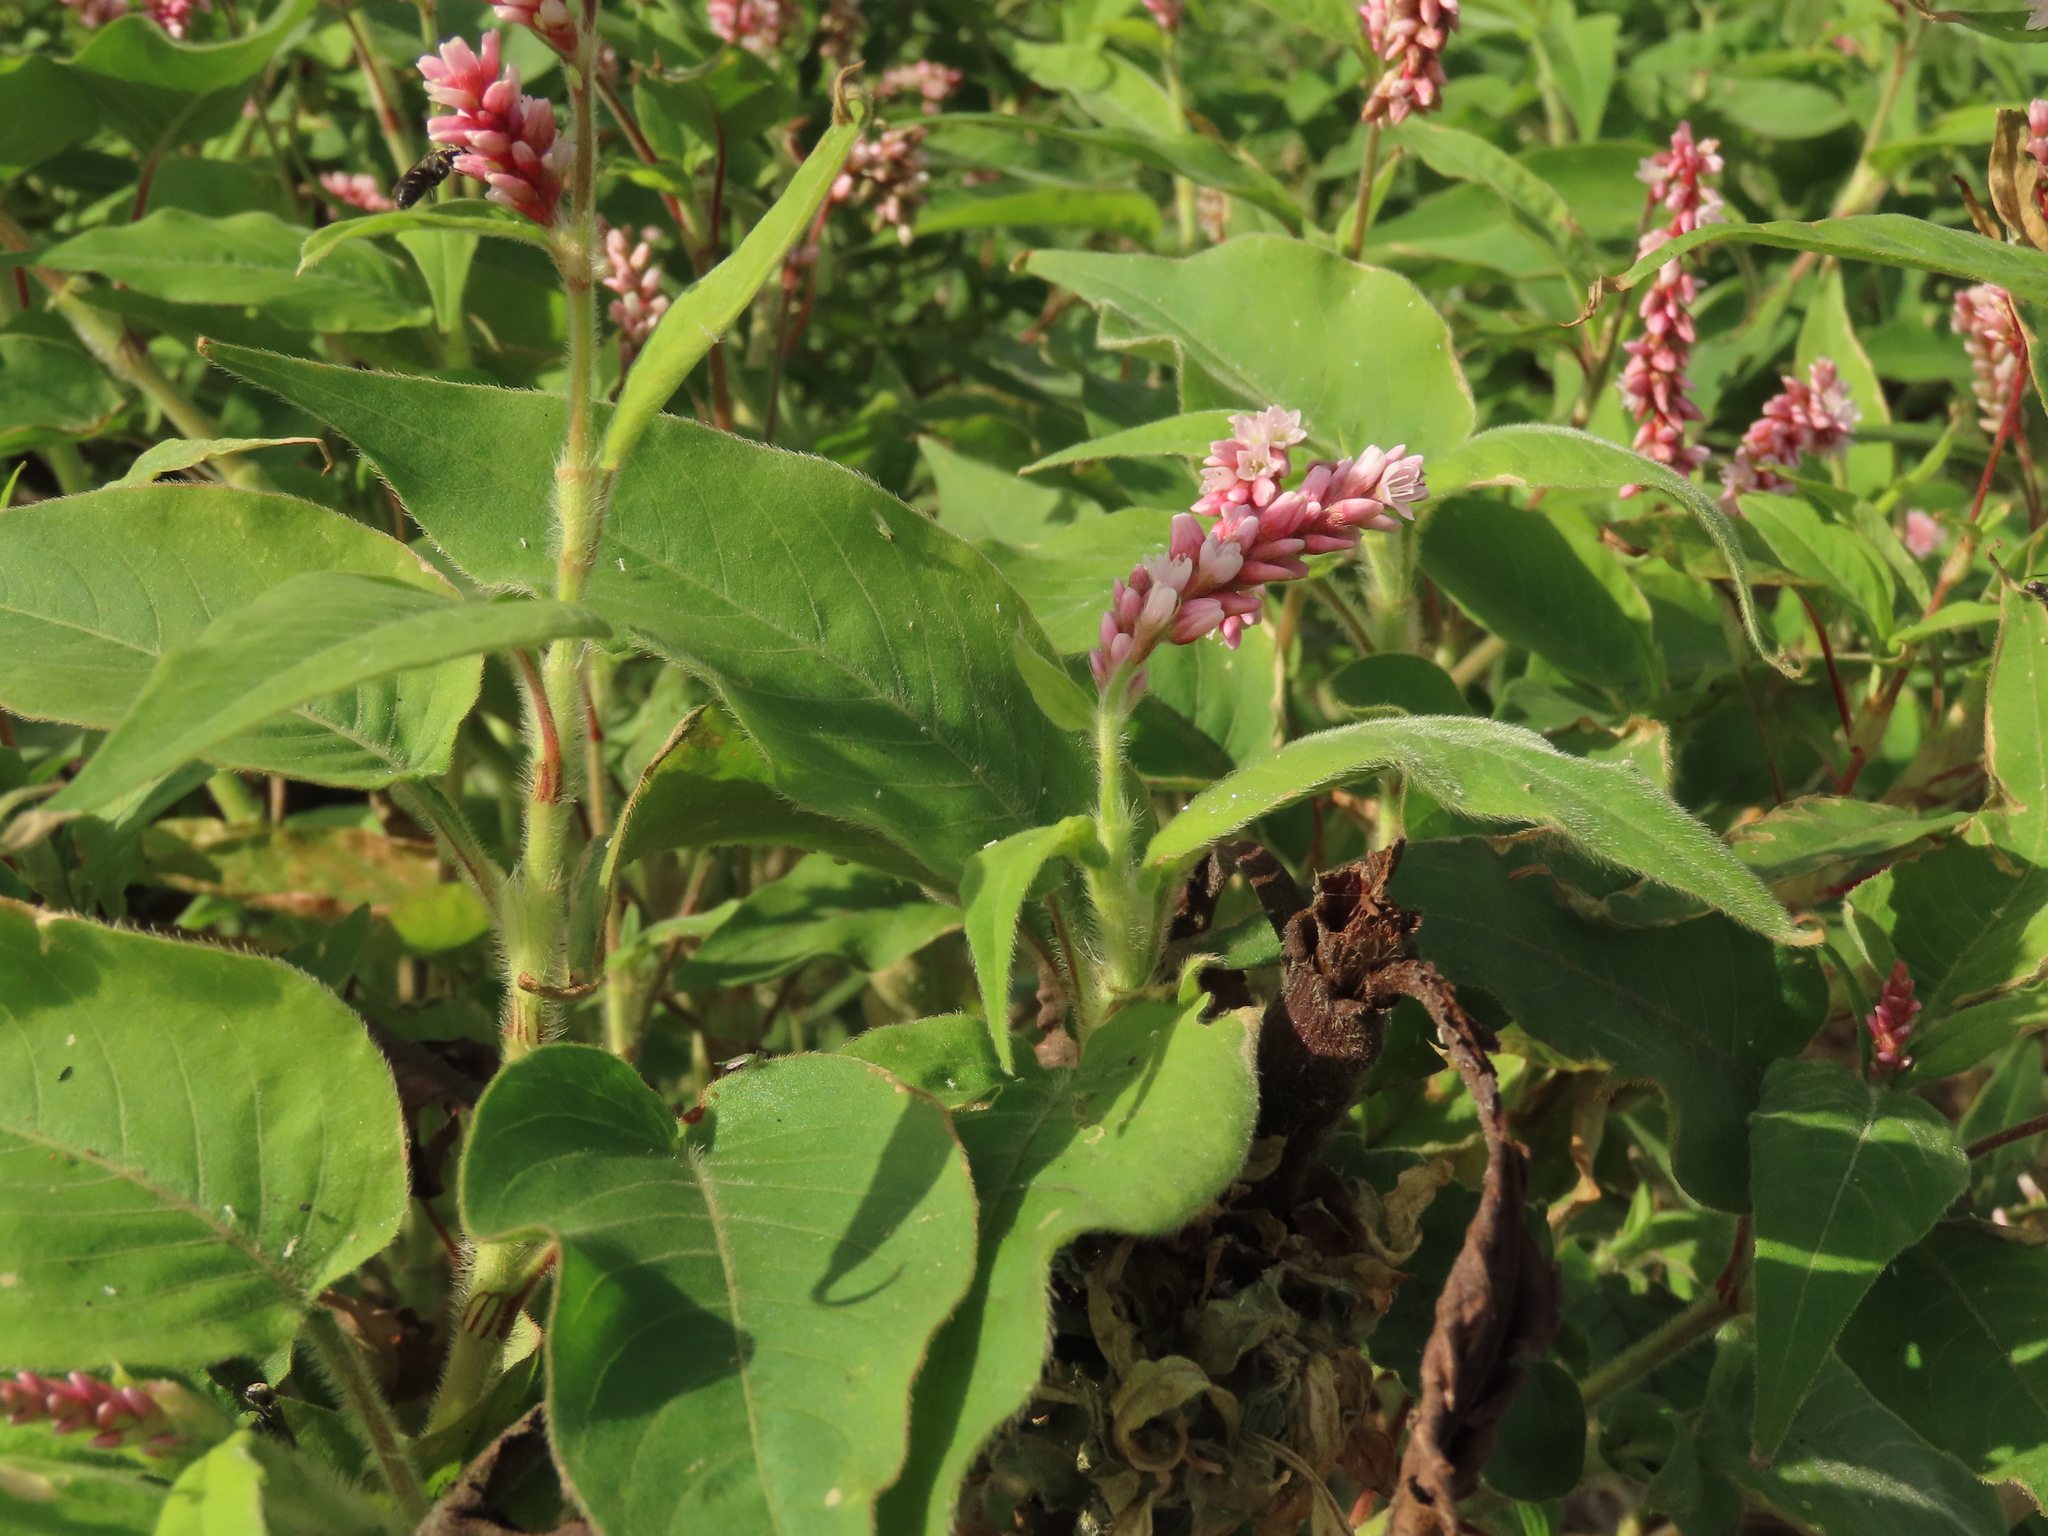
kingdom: Plantae
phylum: Tracheophyta
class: Magnoliopsida
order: Caryophyllales
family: Polygonaceae
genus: Persicaria
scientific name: Persicaria orientalis
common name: Kiss-me-over-the-garden-gate
